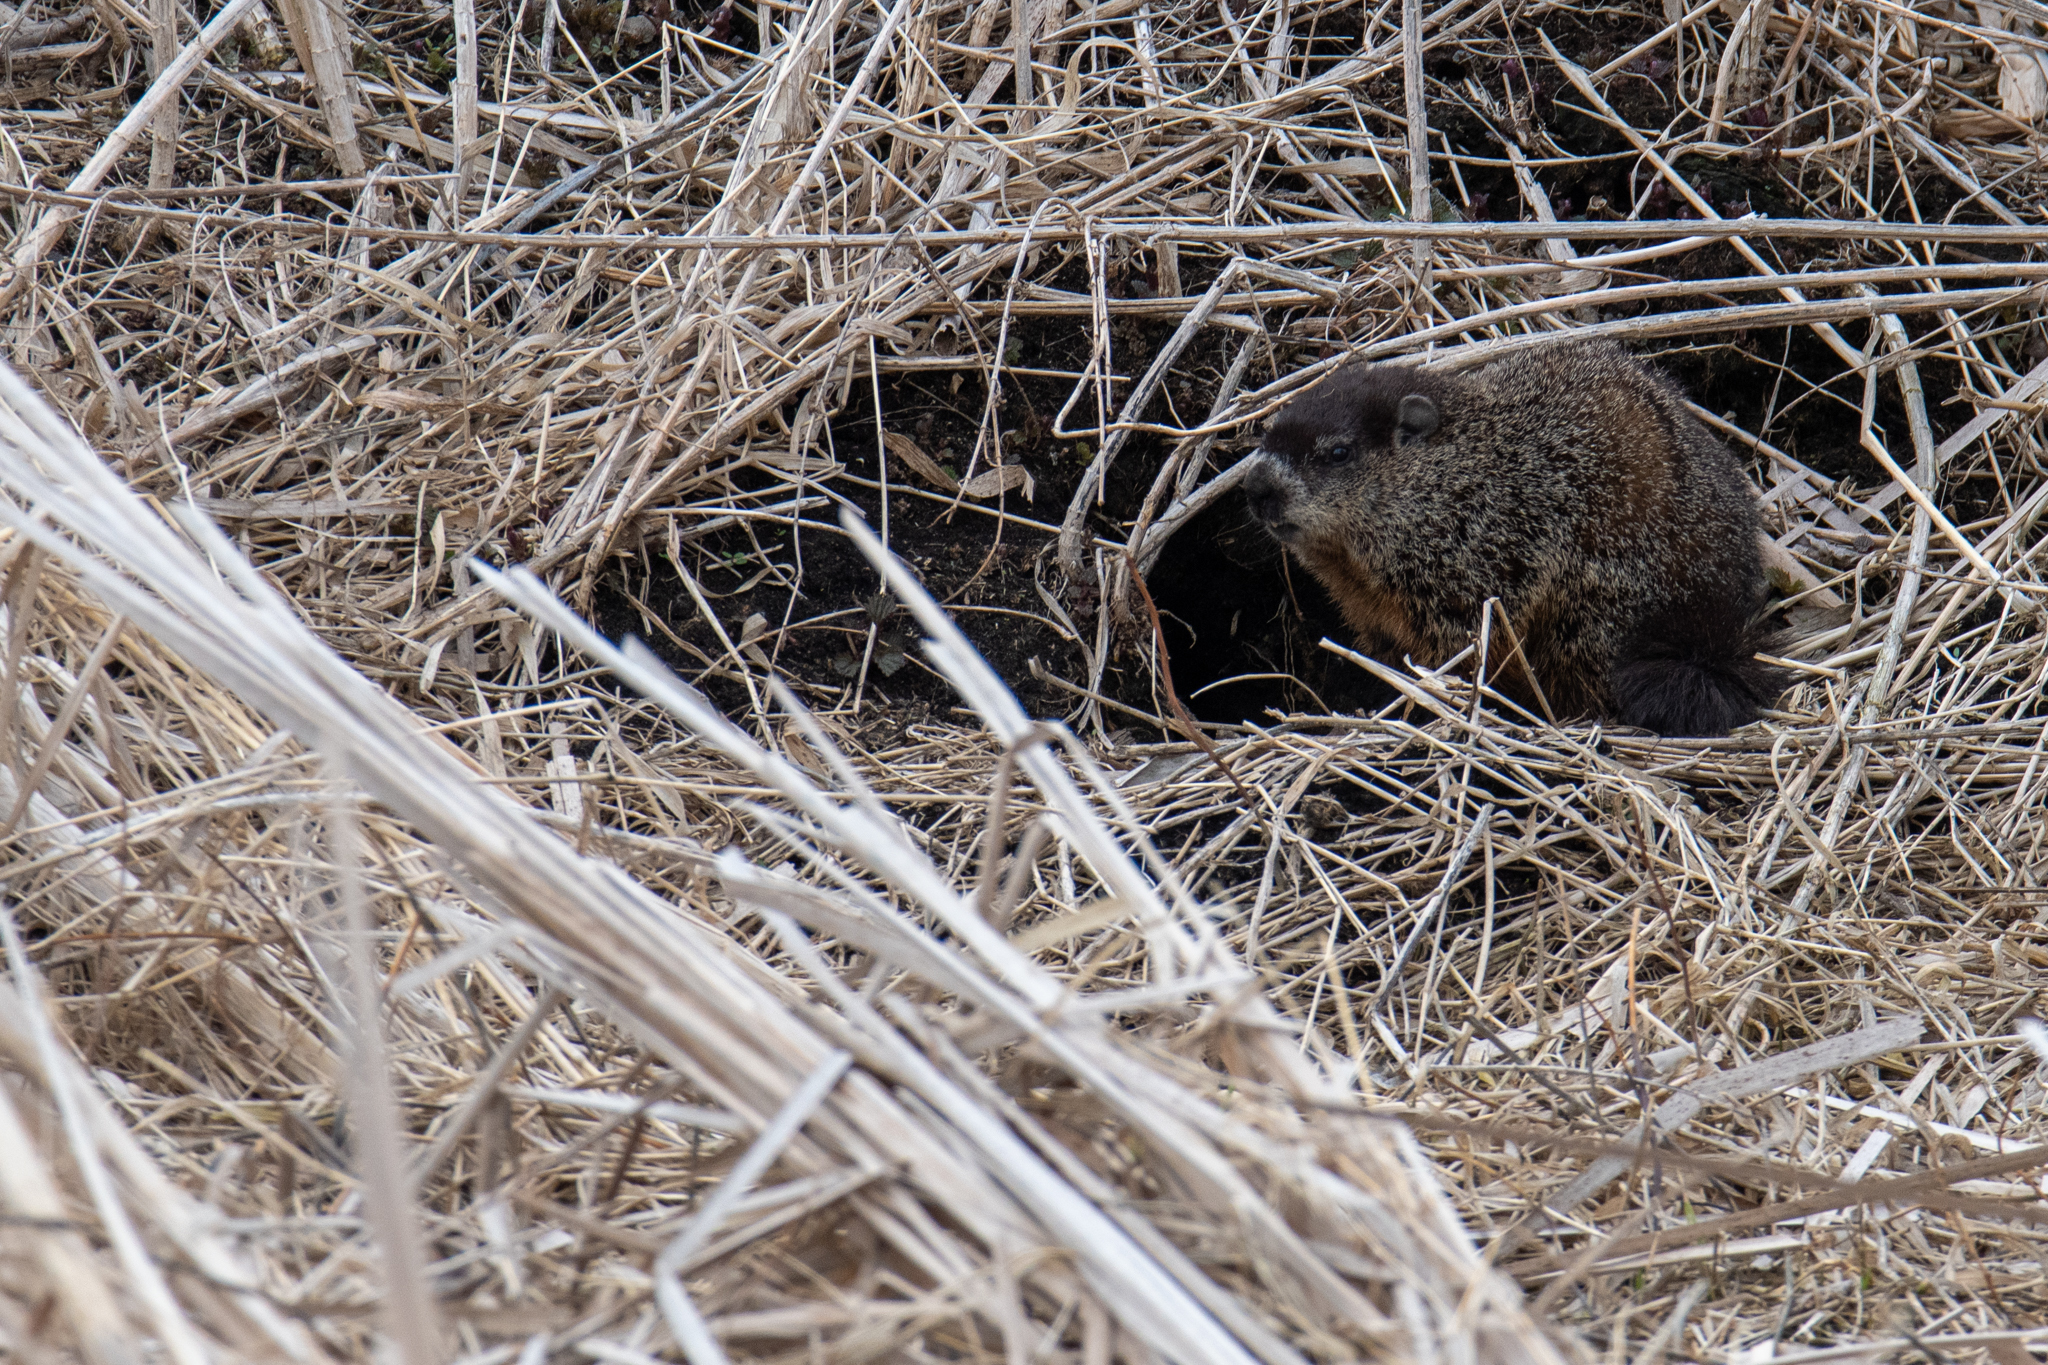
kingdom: Animalia
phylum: Chordata
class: Mammalia
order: Rodentia
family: Sciuridae
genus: Marmota
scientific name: Marmota monax
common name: Groundhog
